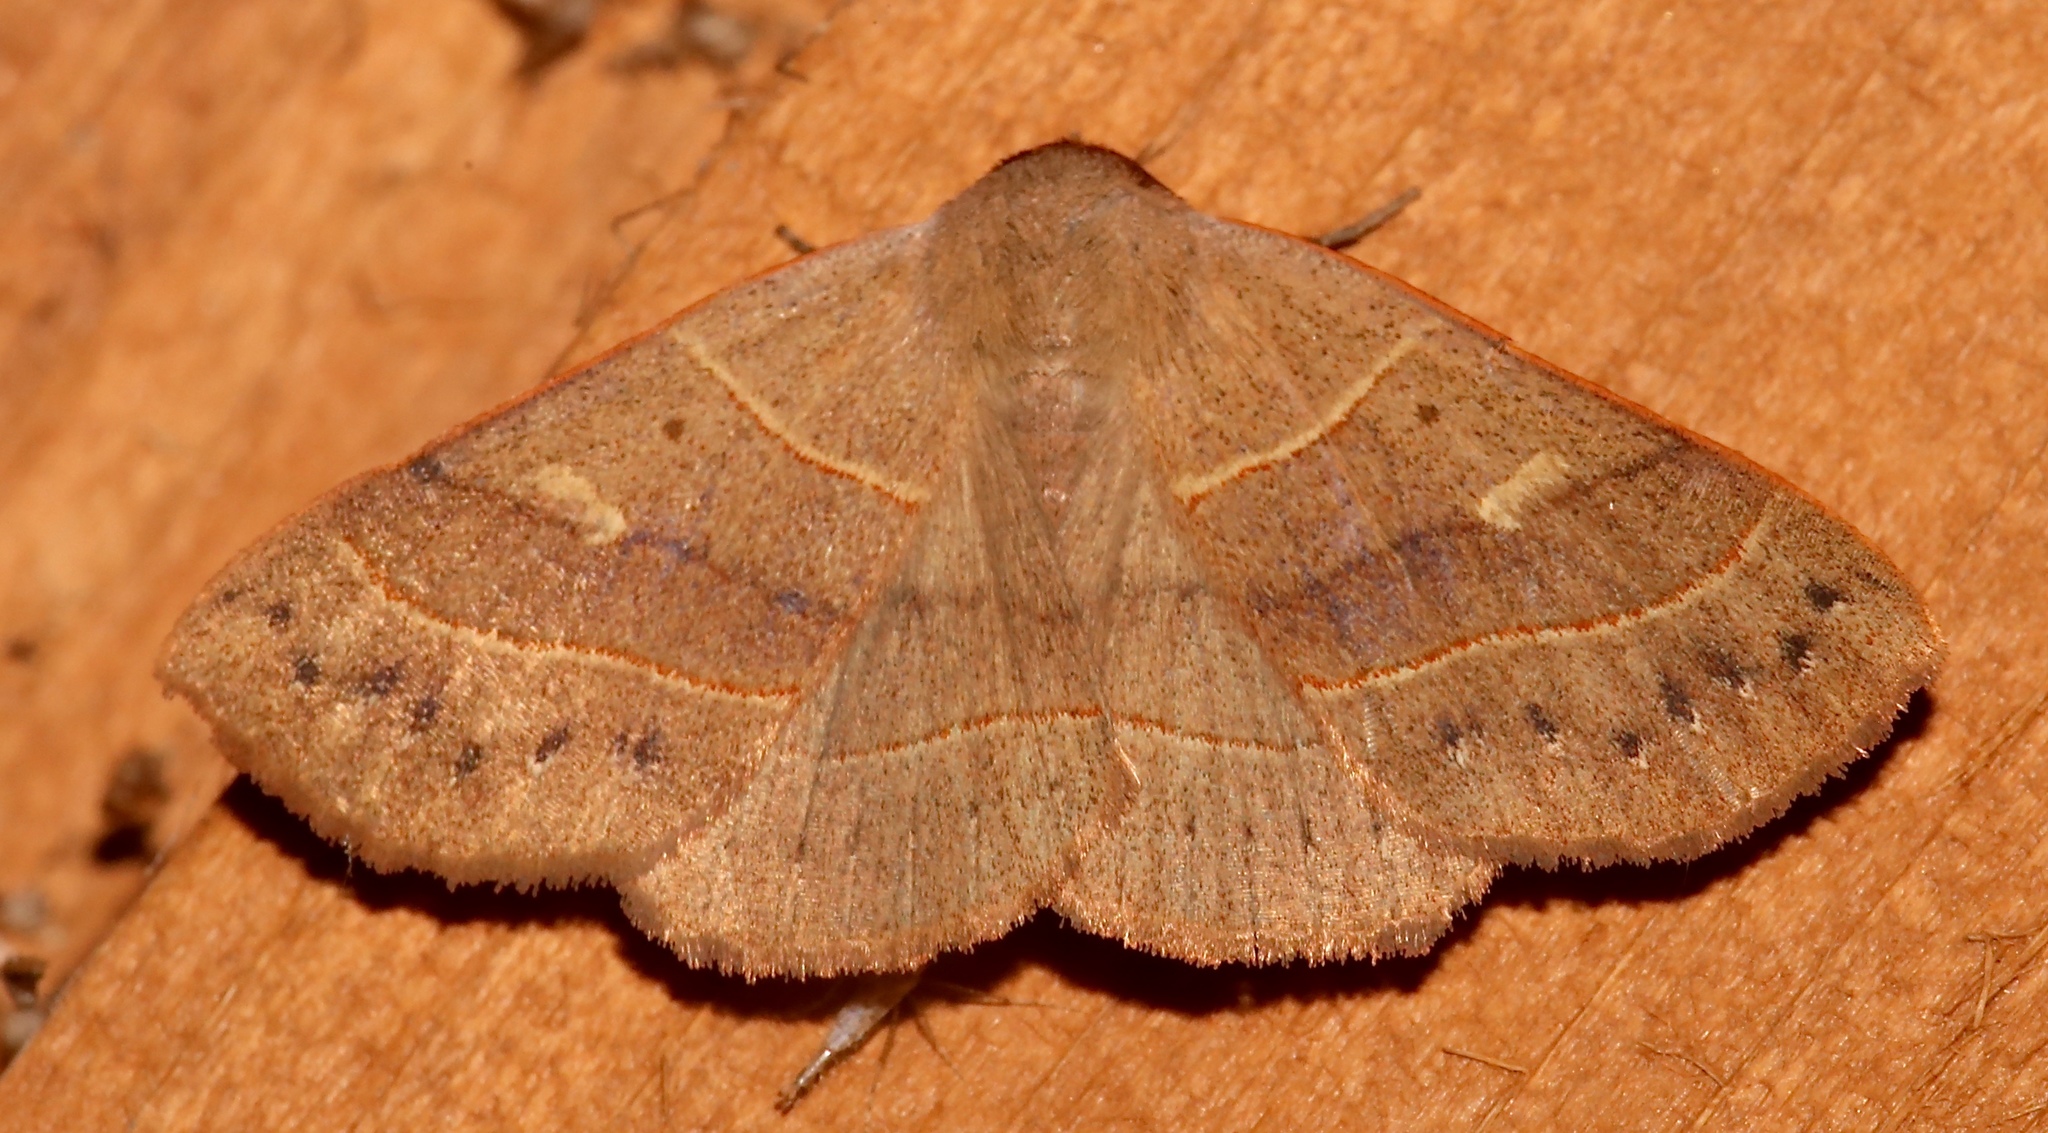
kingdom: Animalia
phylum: Arthropoda
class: Insecta
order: Lepidoptera
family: Erebidae
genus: Panopoda
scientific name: Panopoda rufimargo
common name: Red-lined panopoda moth
